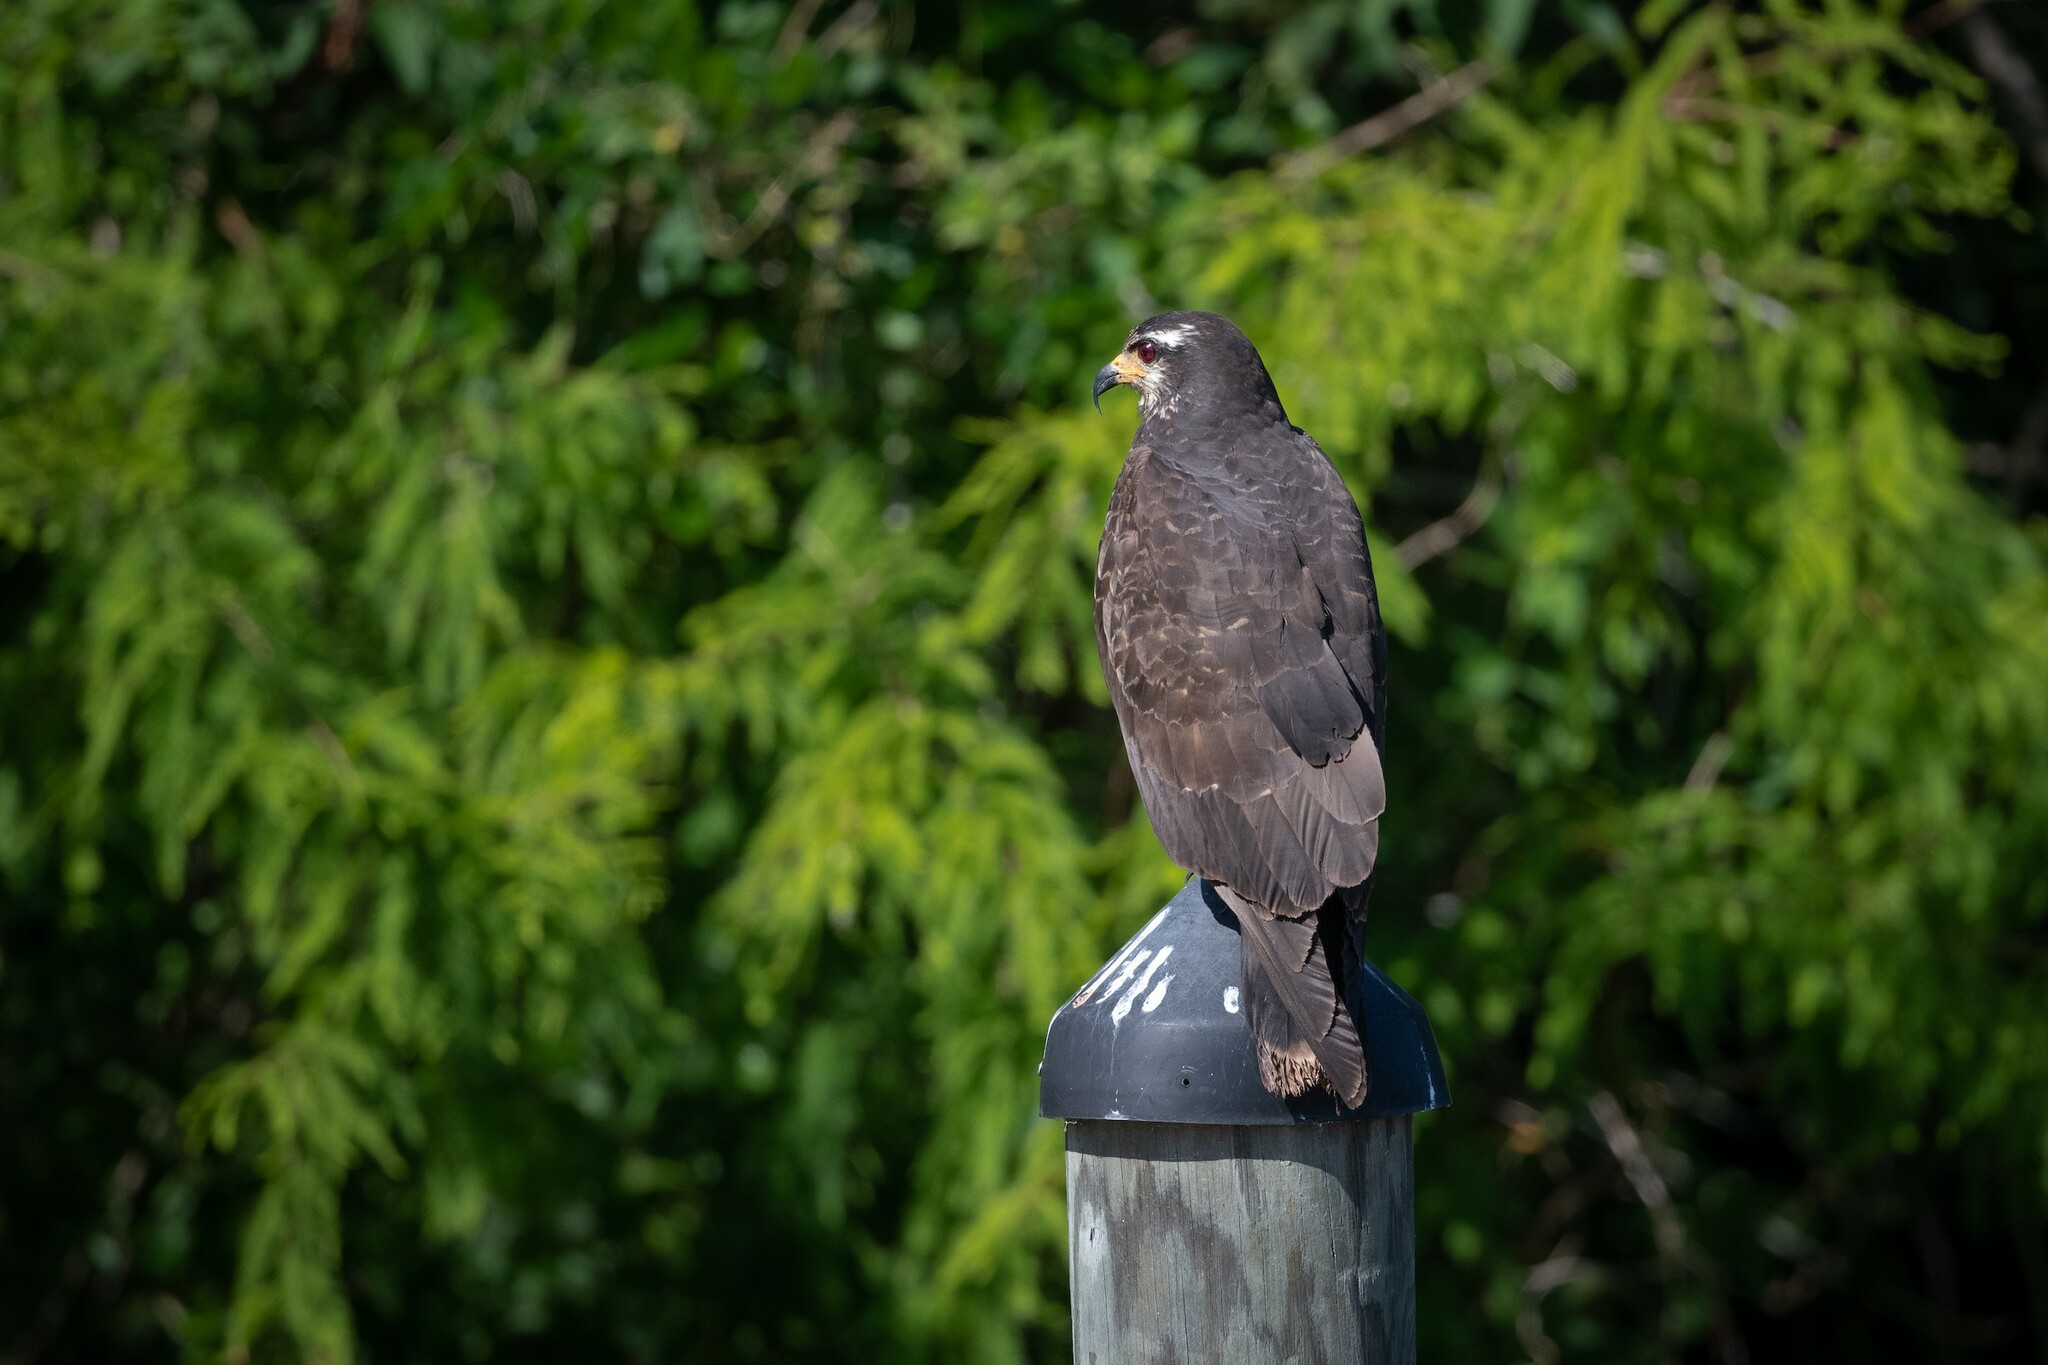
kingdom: Animalia
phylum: Chordata
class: Aves
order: Accipitriformes
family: Accipitridae
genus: Rostrhamus
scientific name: Rostrhamus sociabilis
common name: Snail kite
